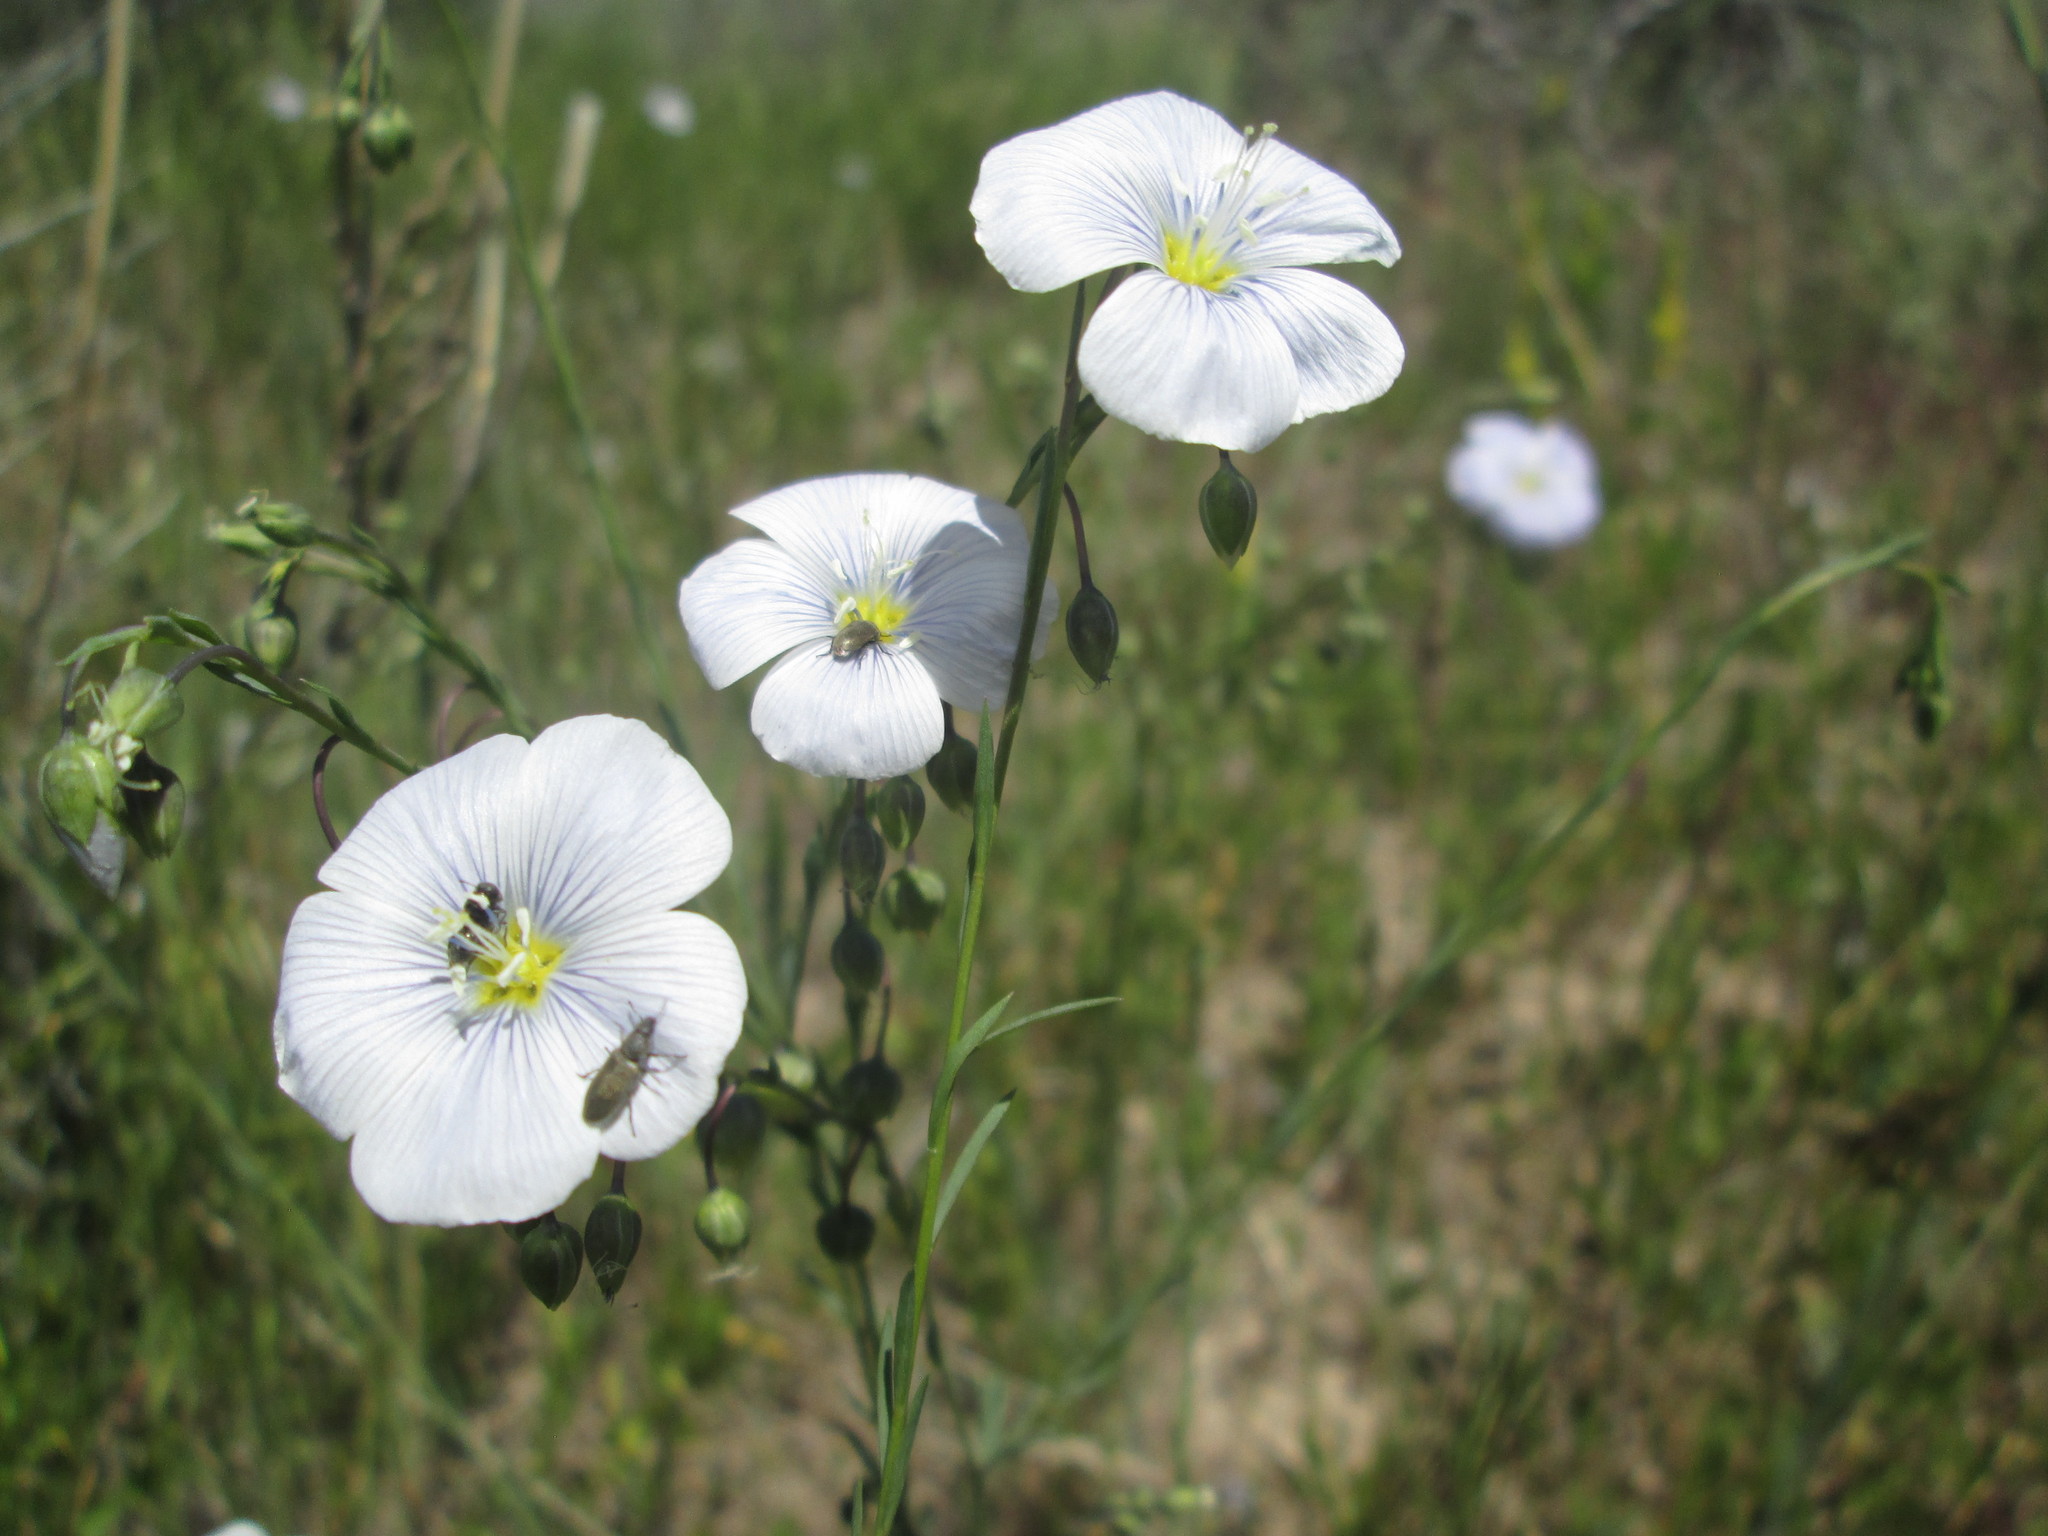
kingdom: Plantae
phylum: Tracheophyta
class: Magnoliopsida
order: Malpighiales
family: Linaceae
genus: Linum
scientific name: Linum lewisii
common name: Prairie flax
